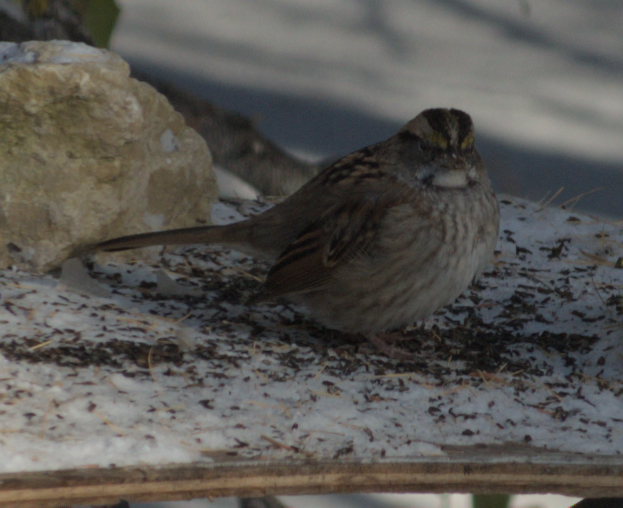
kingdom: Animalia
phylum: Chordata
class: Aves
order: Passeriformes
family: Passerellidae
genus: Zonotrichia
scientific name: Zonotrichia albicollis
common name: White-throated sparrow
